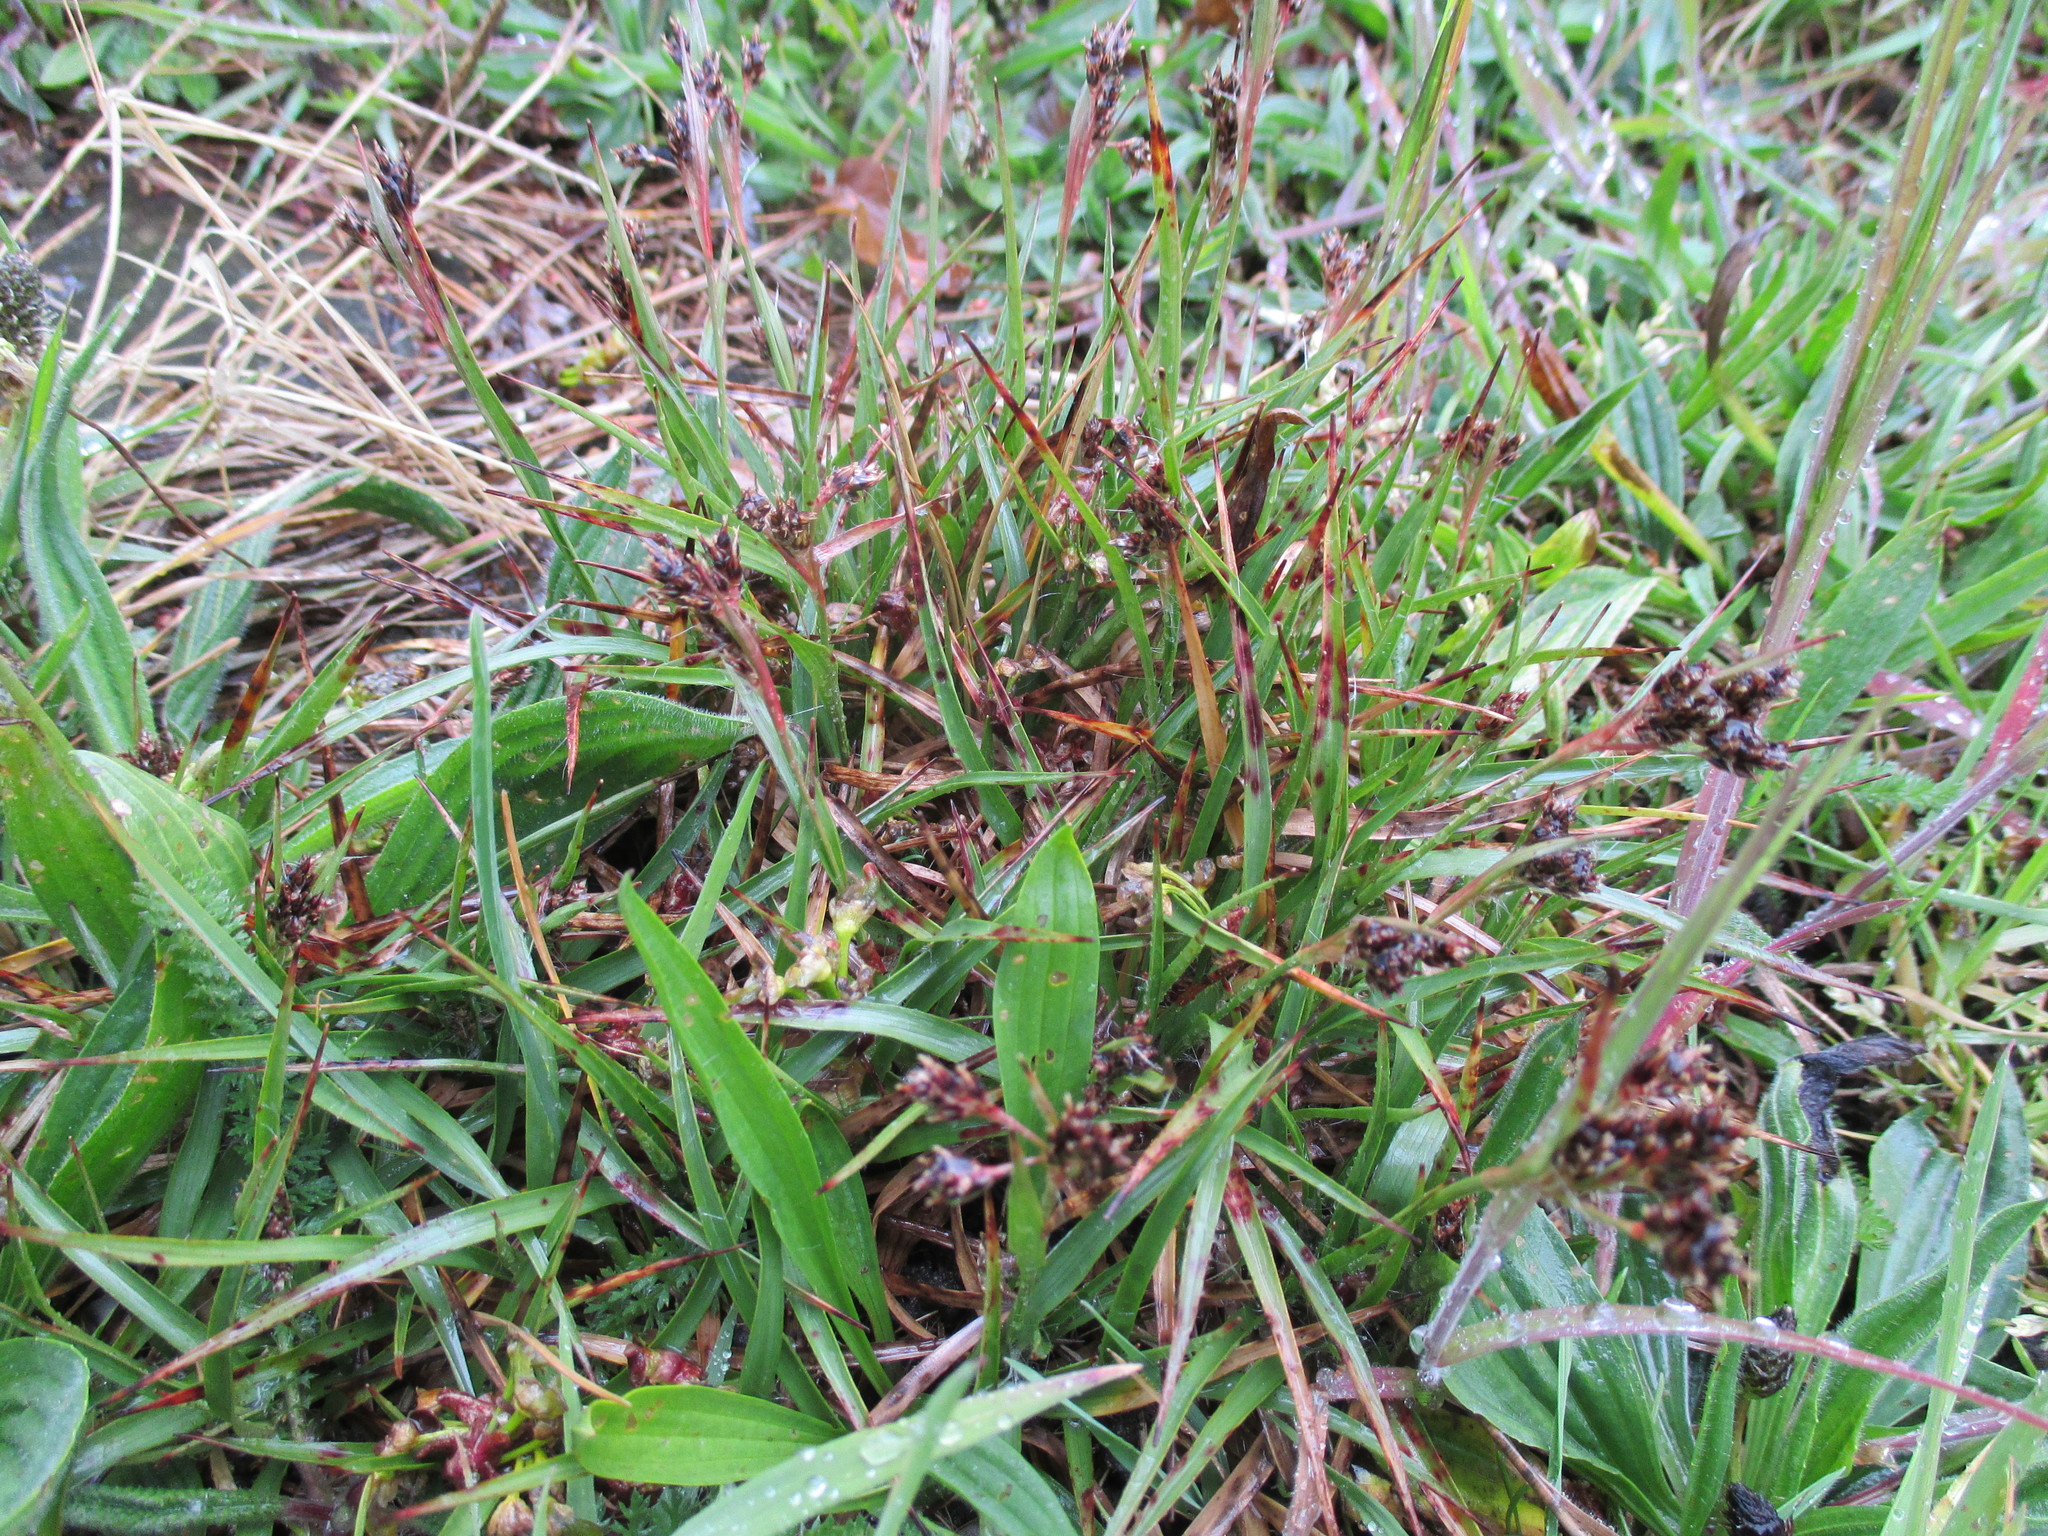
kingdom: Plantae
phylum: Tracheophyta
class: Liliopsida
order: Poales
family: Juncaceae
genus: Luzula
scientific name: Luzula campestris
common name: Field wood-rush
